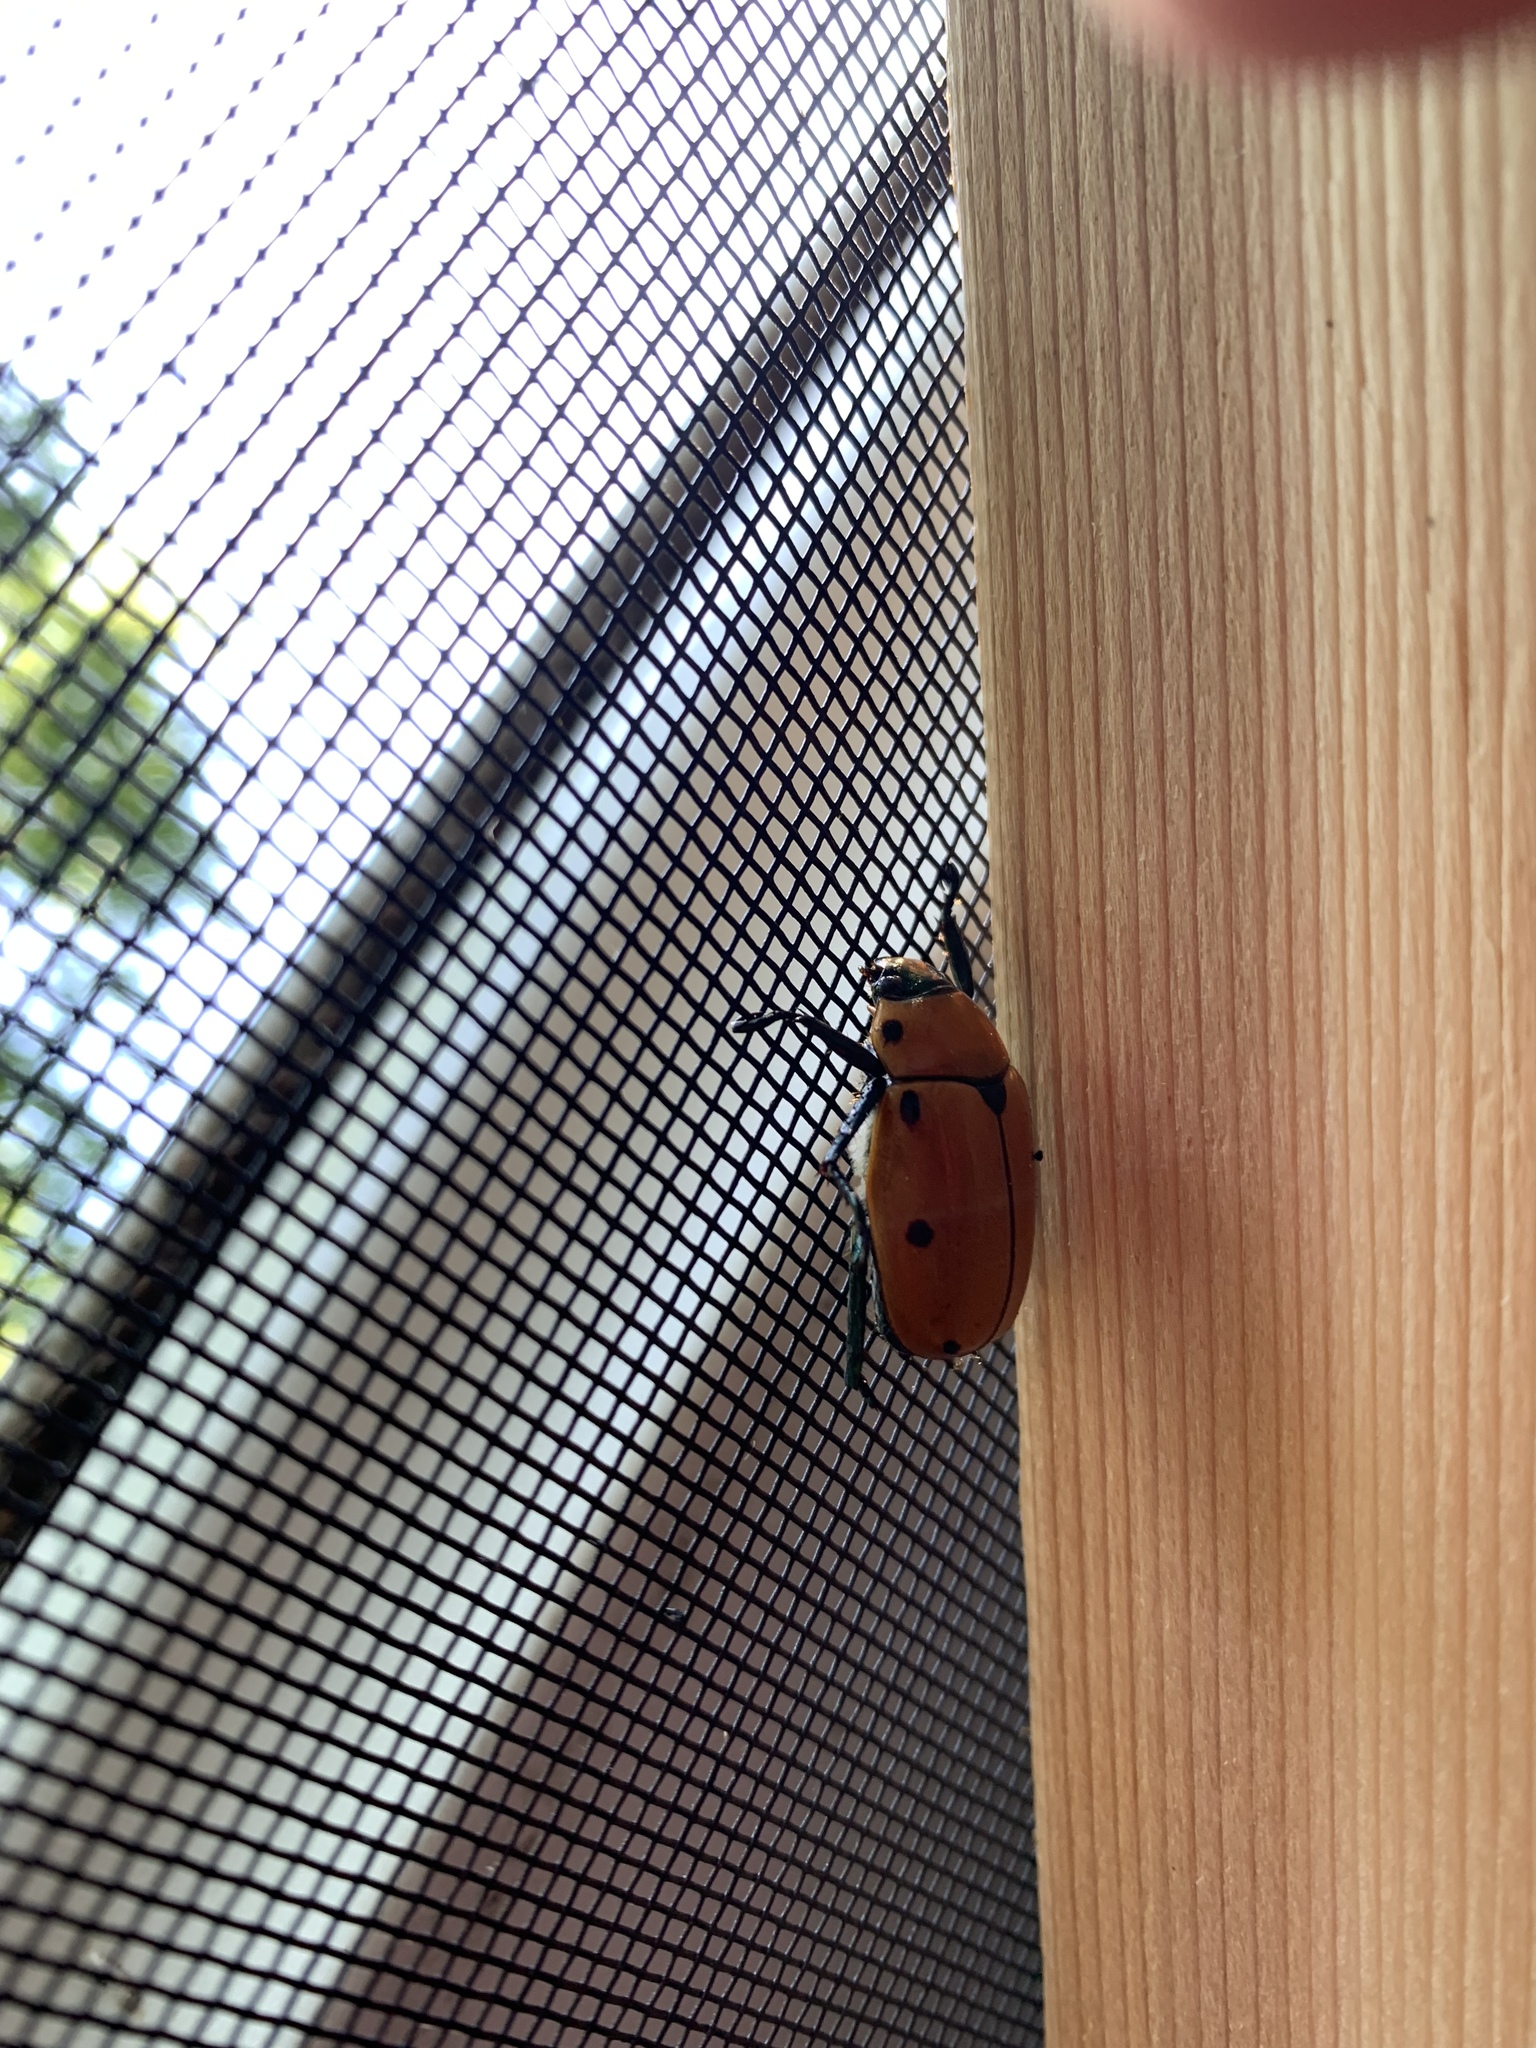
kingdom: Animalia
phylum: Arthropoda
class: Insecta
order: Coleoptera
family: Scarabaeidae
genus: Pelidnota
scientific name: Pelidnota punctata
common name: Grapevine beetle
